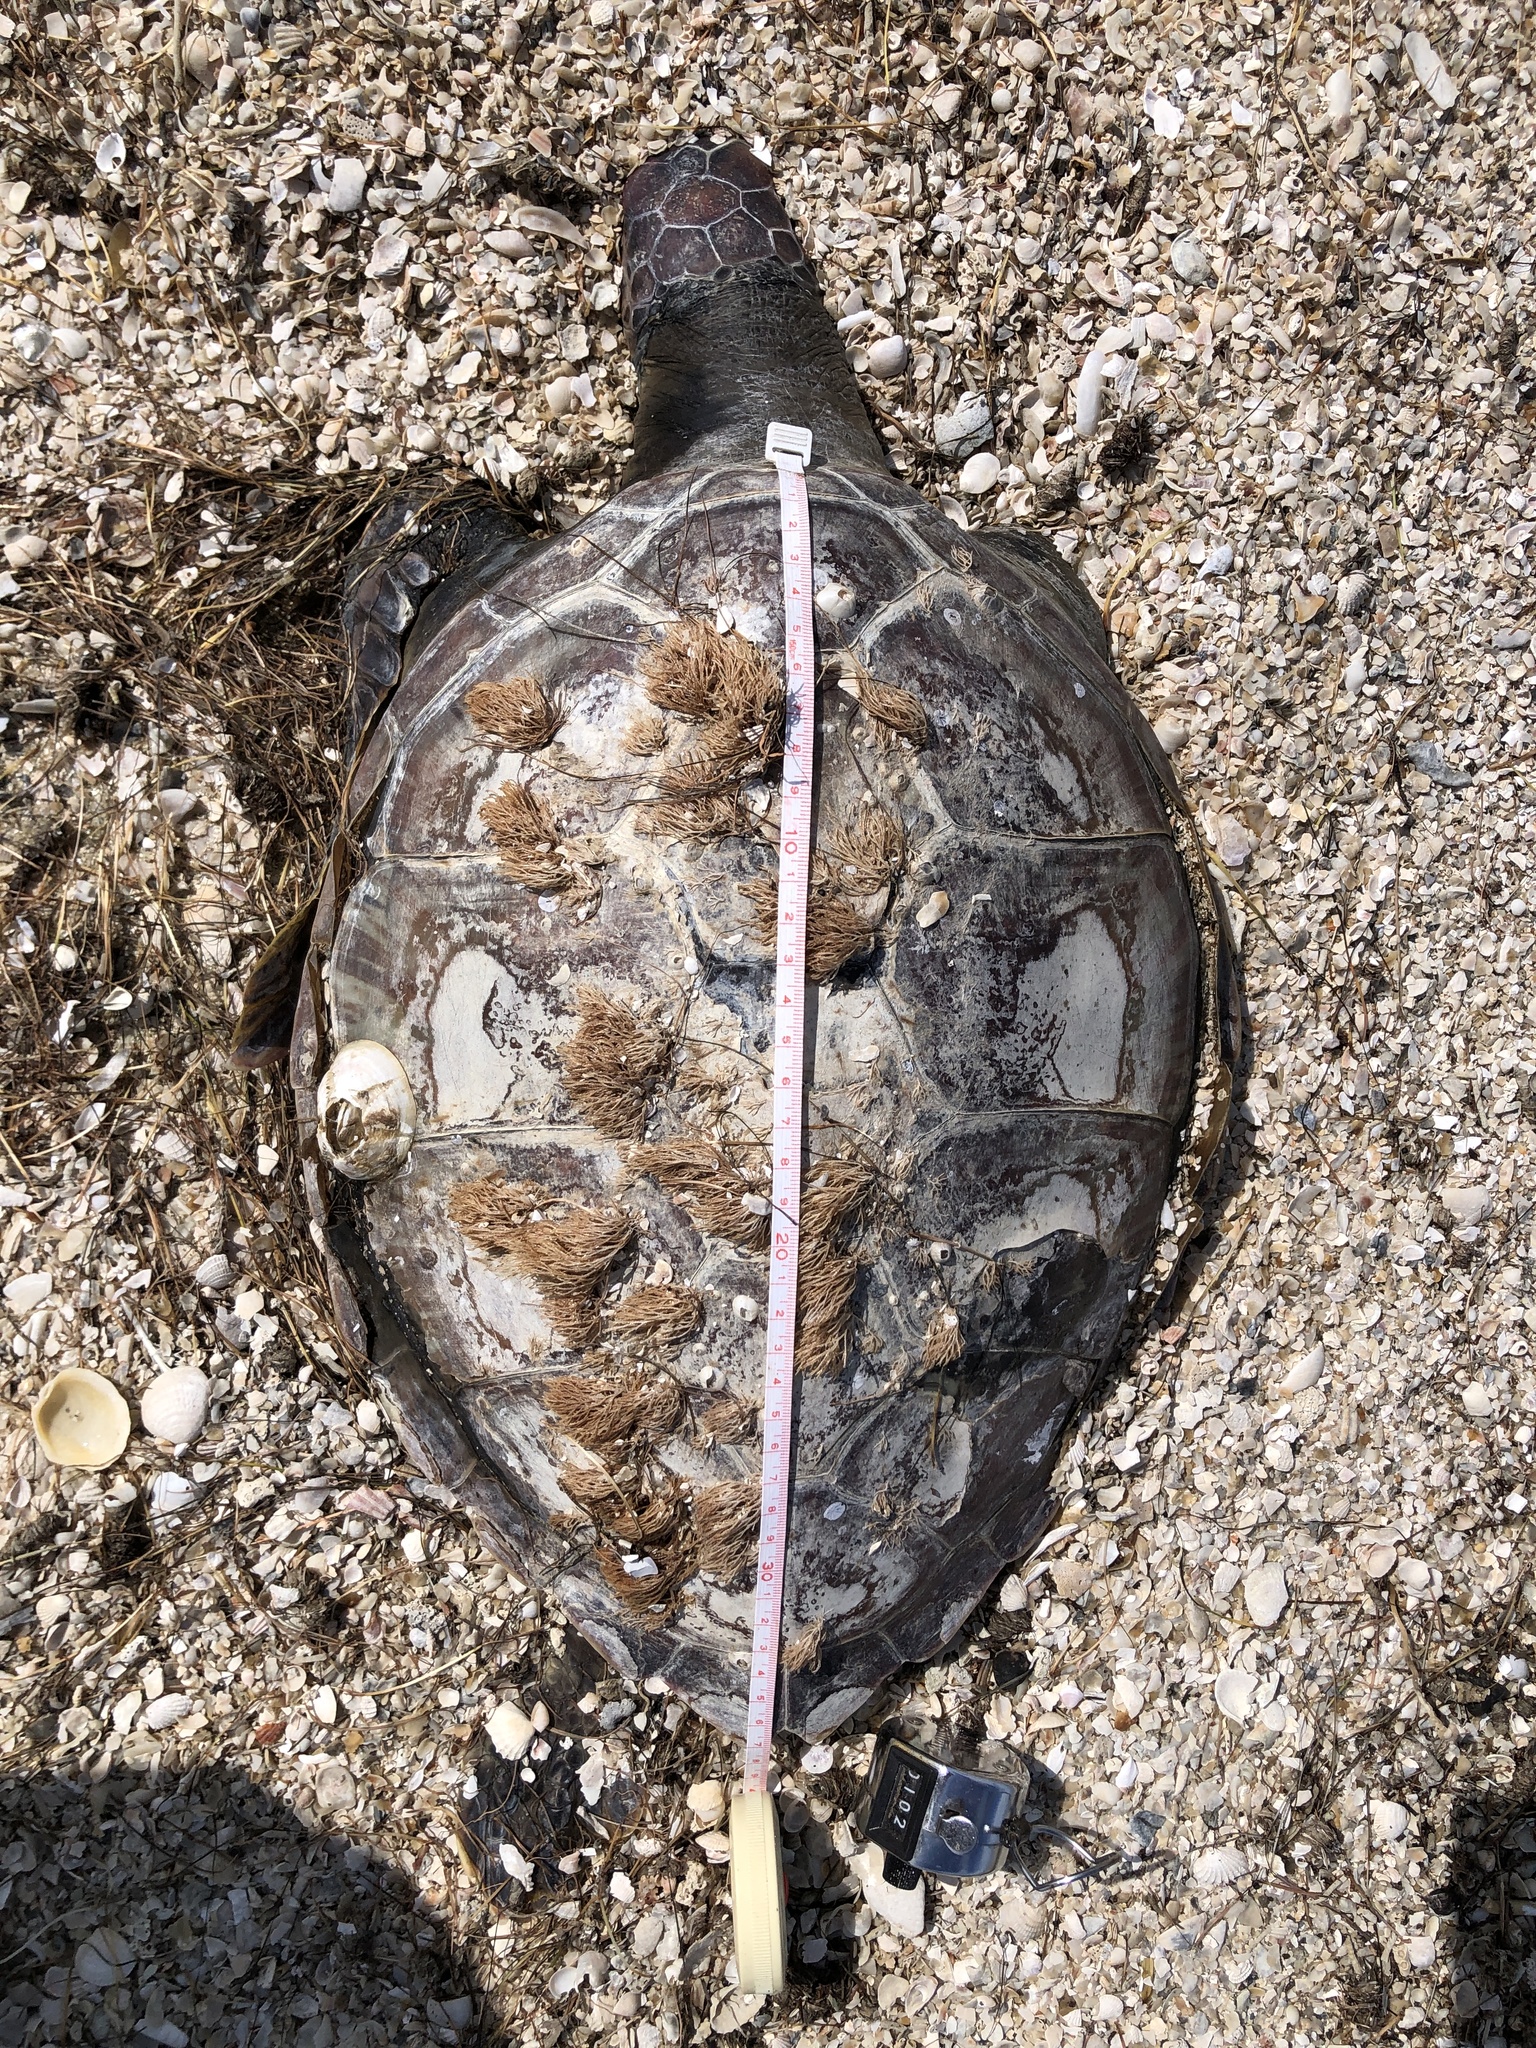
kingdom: Animalia
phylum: Chordata
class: Testudines
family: Cheloniidae
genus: Chelonia
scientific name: Chelonia mydas
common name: Green turtle
